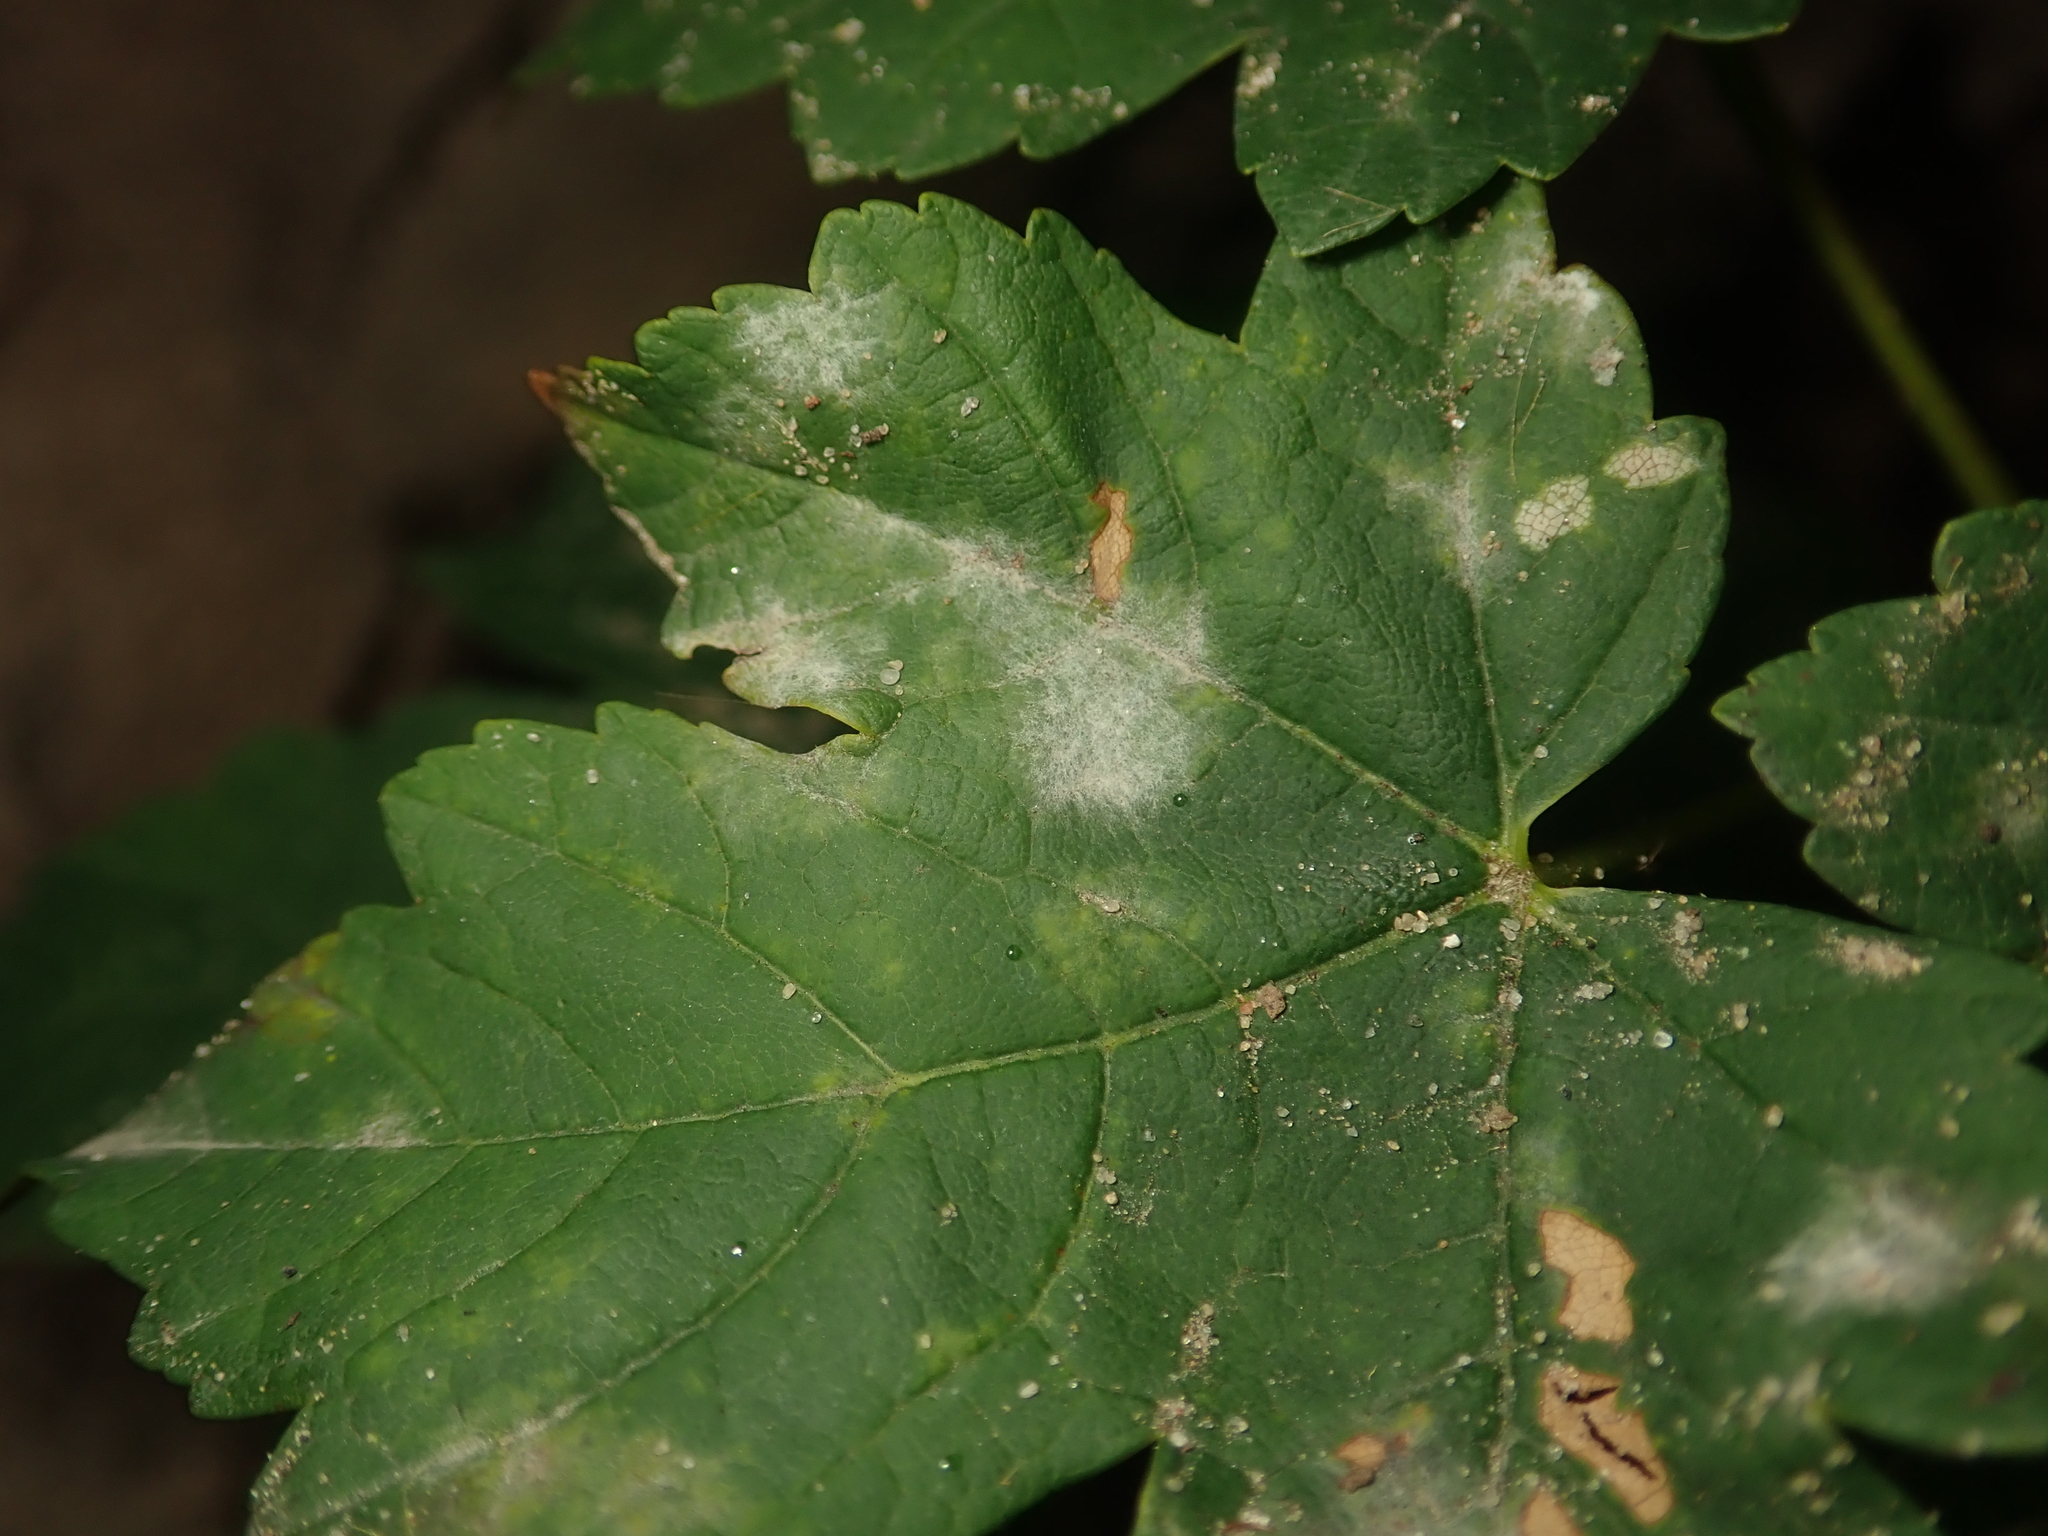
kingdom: Fungi
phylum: Ascomycota
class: Leotiomycetes
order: Helotiales
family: Erysiphaceae
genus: Sawadaea
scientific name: Sawadaea bicornis
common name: Maple mildew
